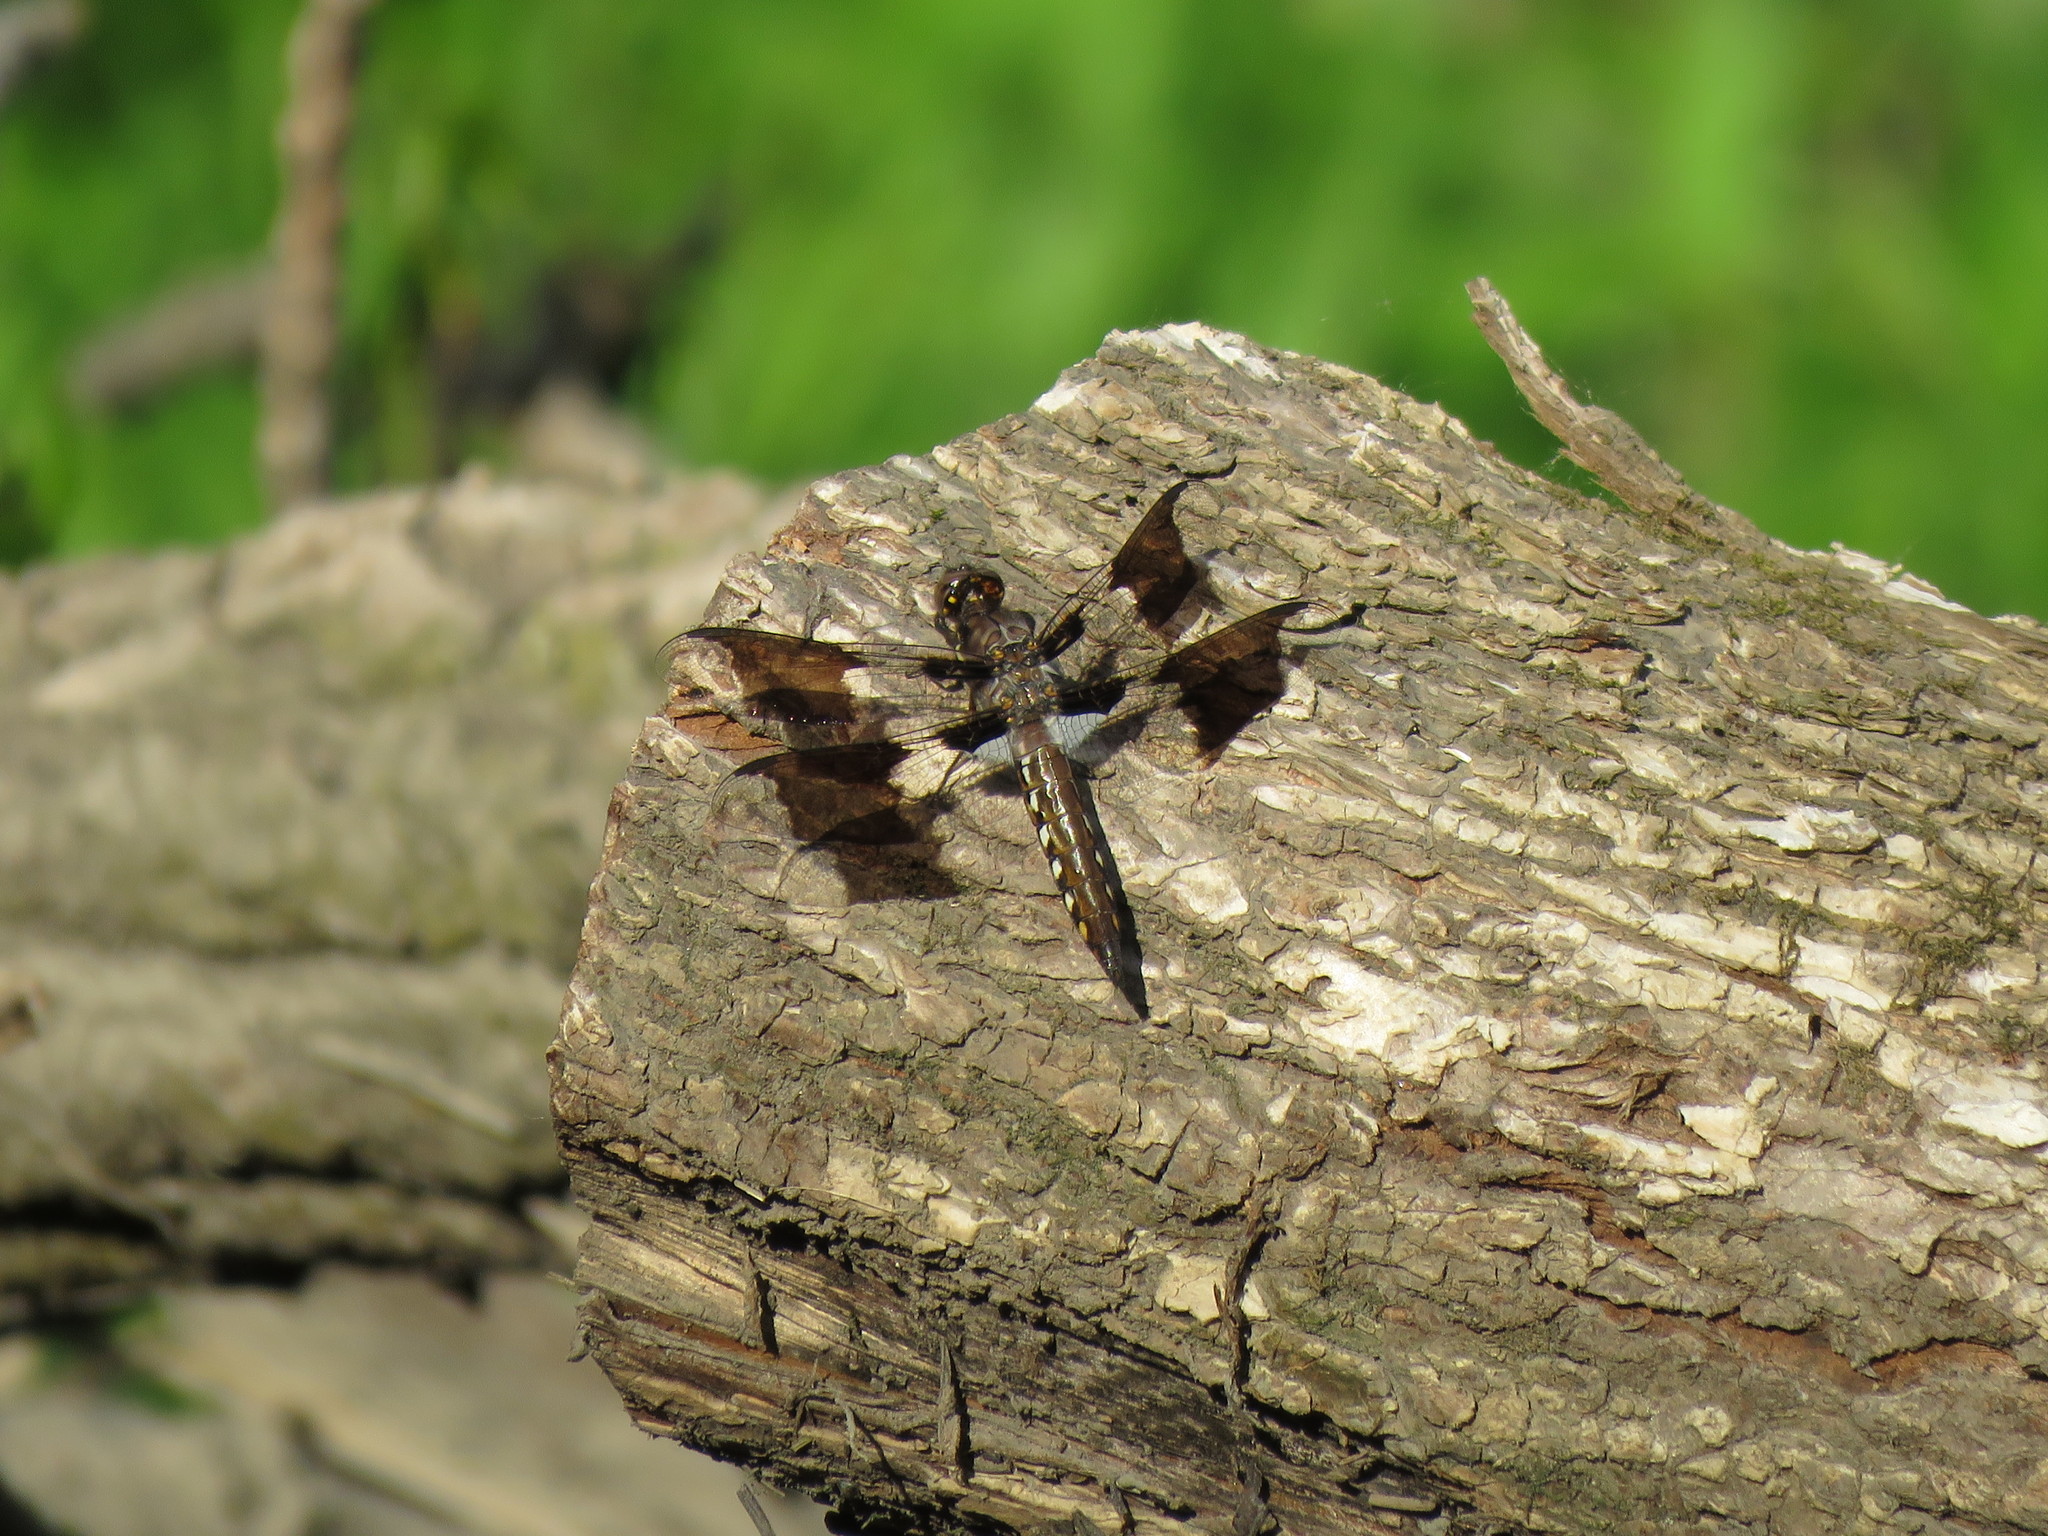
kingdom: Animalia
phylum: Arthropoda
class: Insecta
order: Odonata
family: Libellulidae
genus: Plathemis
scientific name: Plathemis lydia
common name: Common whitetail
